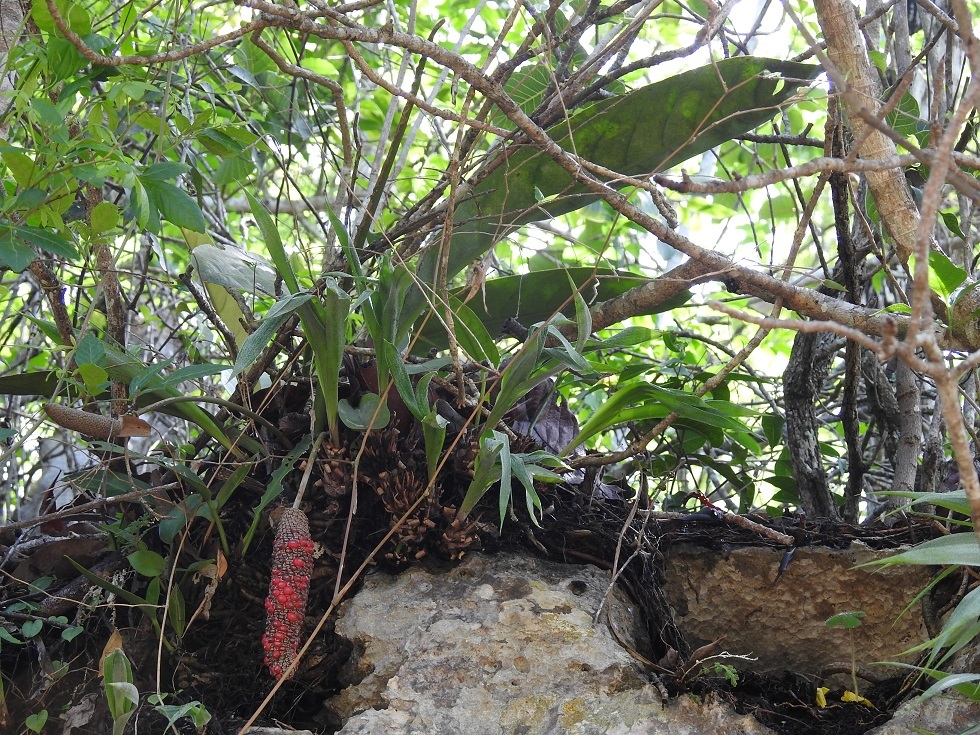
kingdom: Plantae
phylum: Tracheophyta
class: Liliopsida
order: Alismatales
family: Araceae
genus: Anthurium
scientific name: Anthurium schlechtendalii
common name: Laceleaf
